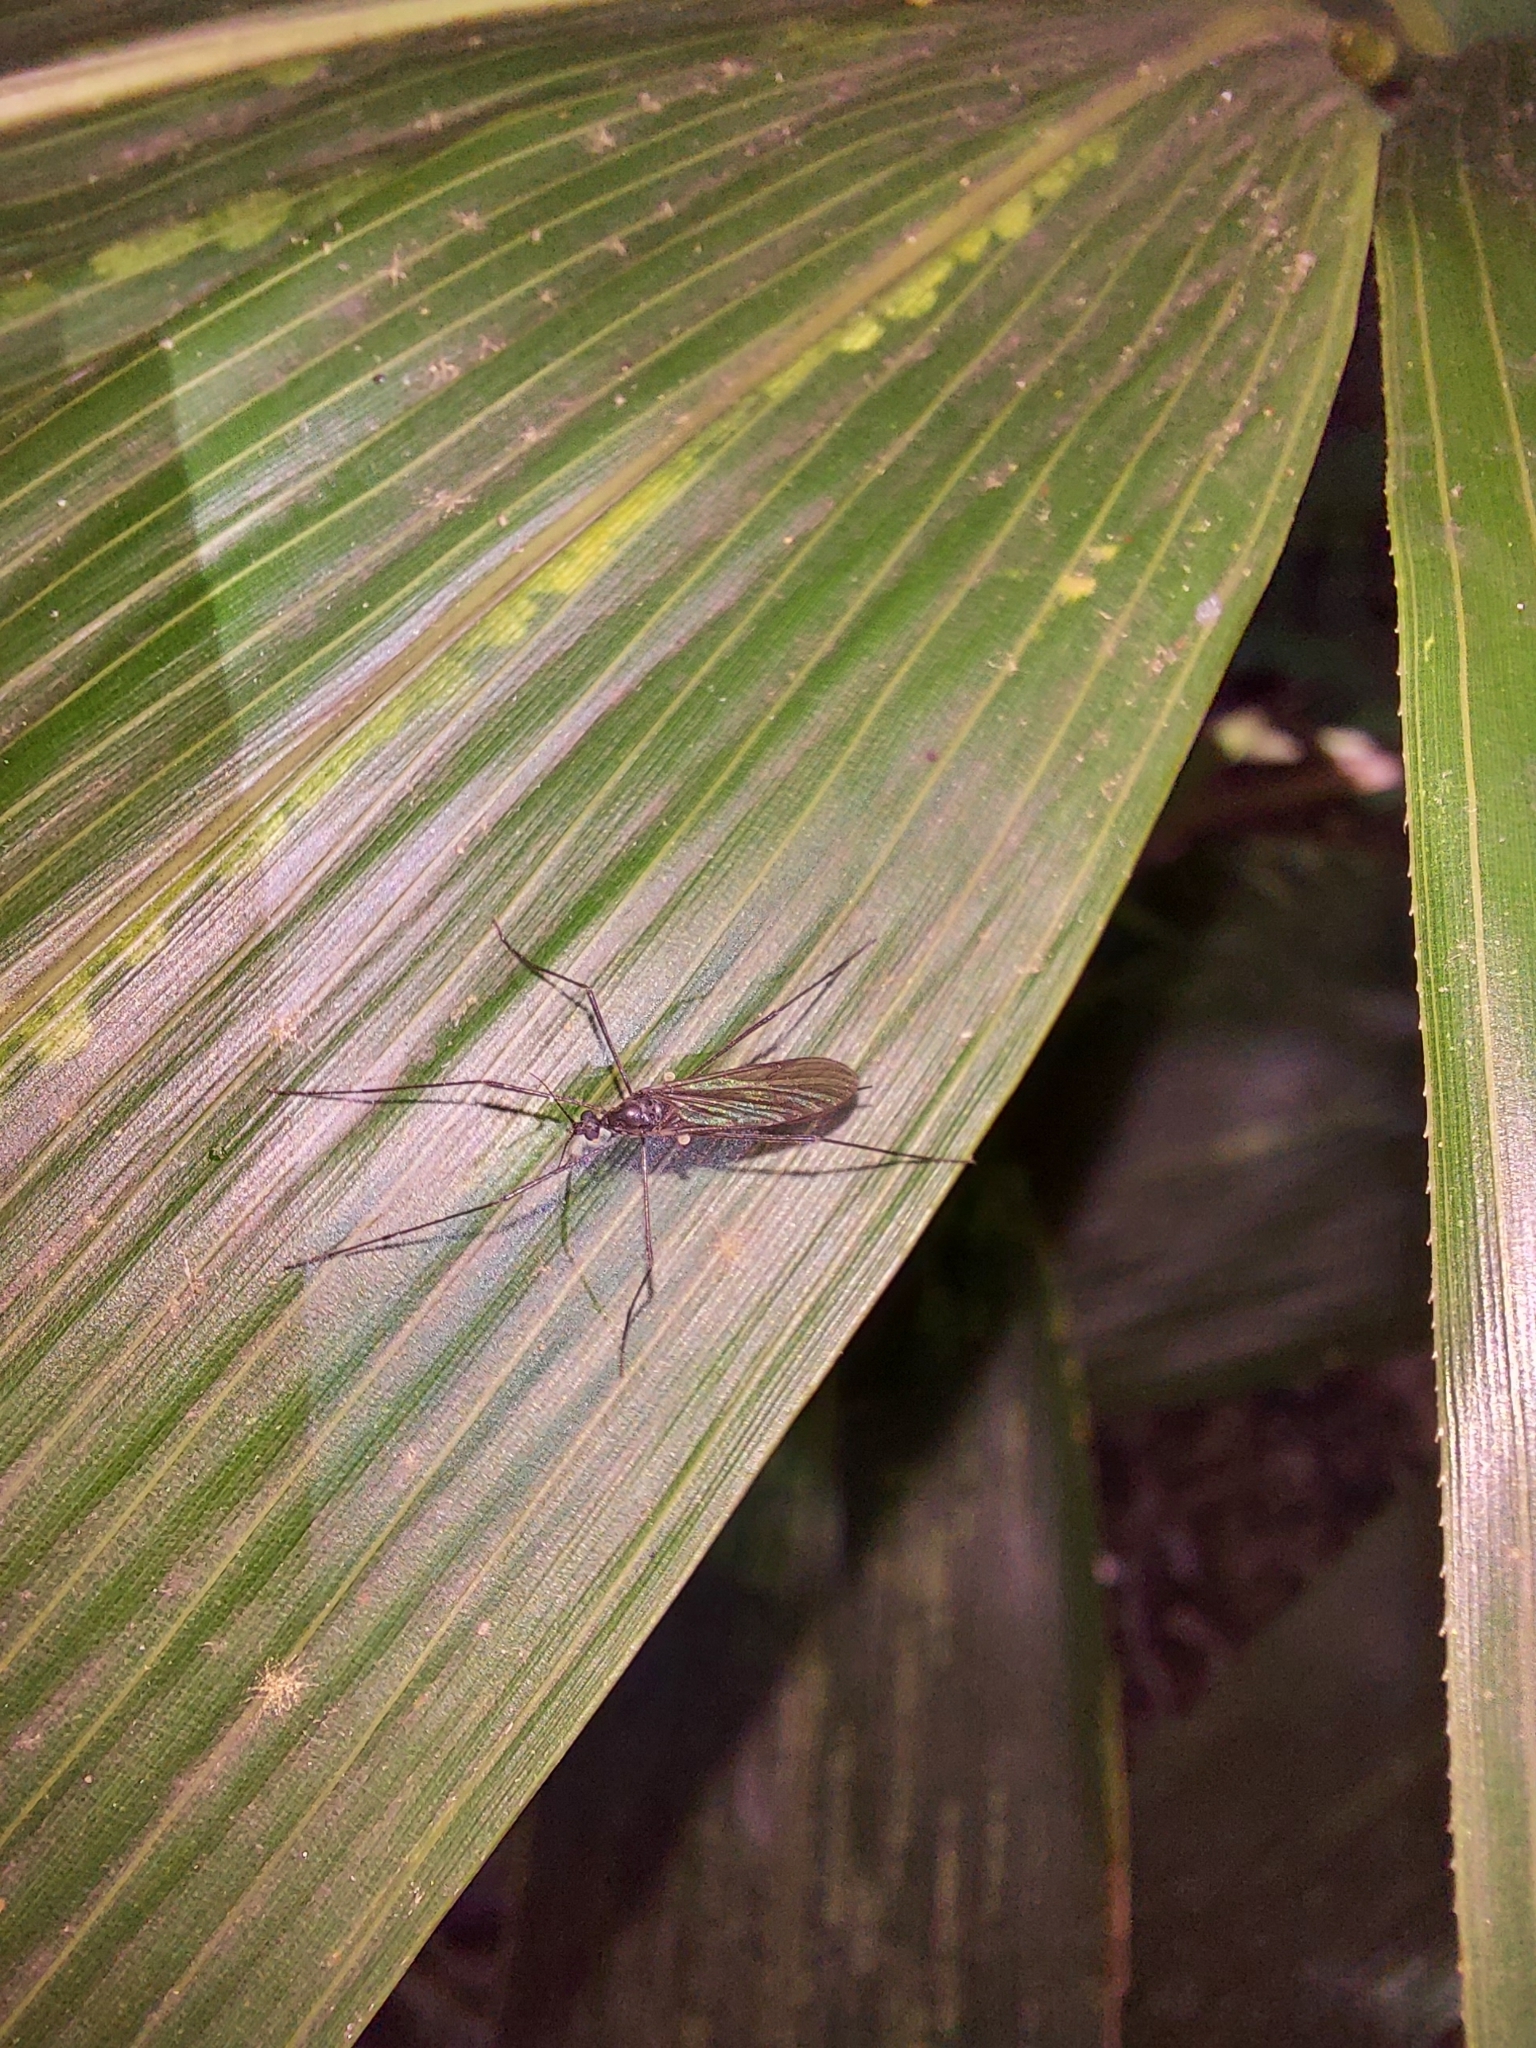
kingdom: Animalia
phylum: Arthropoda
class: Insecta
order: Diptera
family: Limoniidae
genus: Gnophomyia
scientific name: Gnophomyia tristissima
